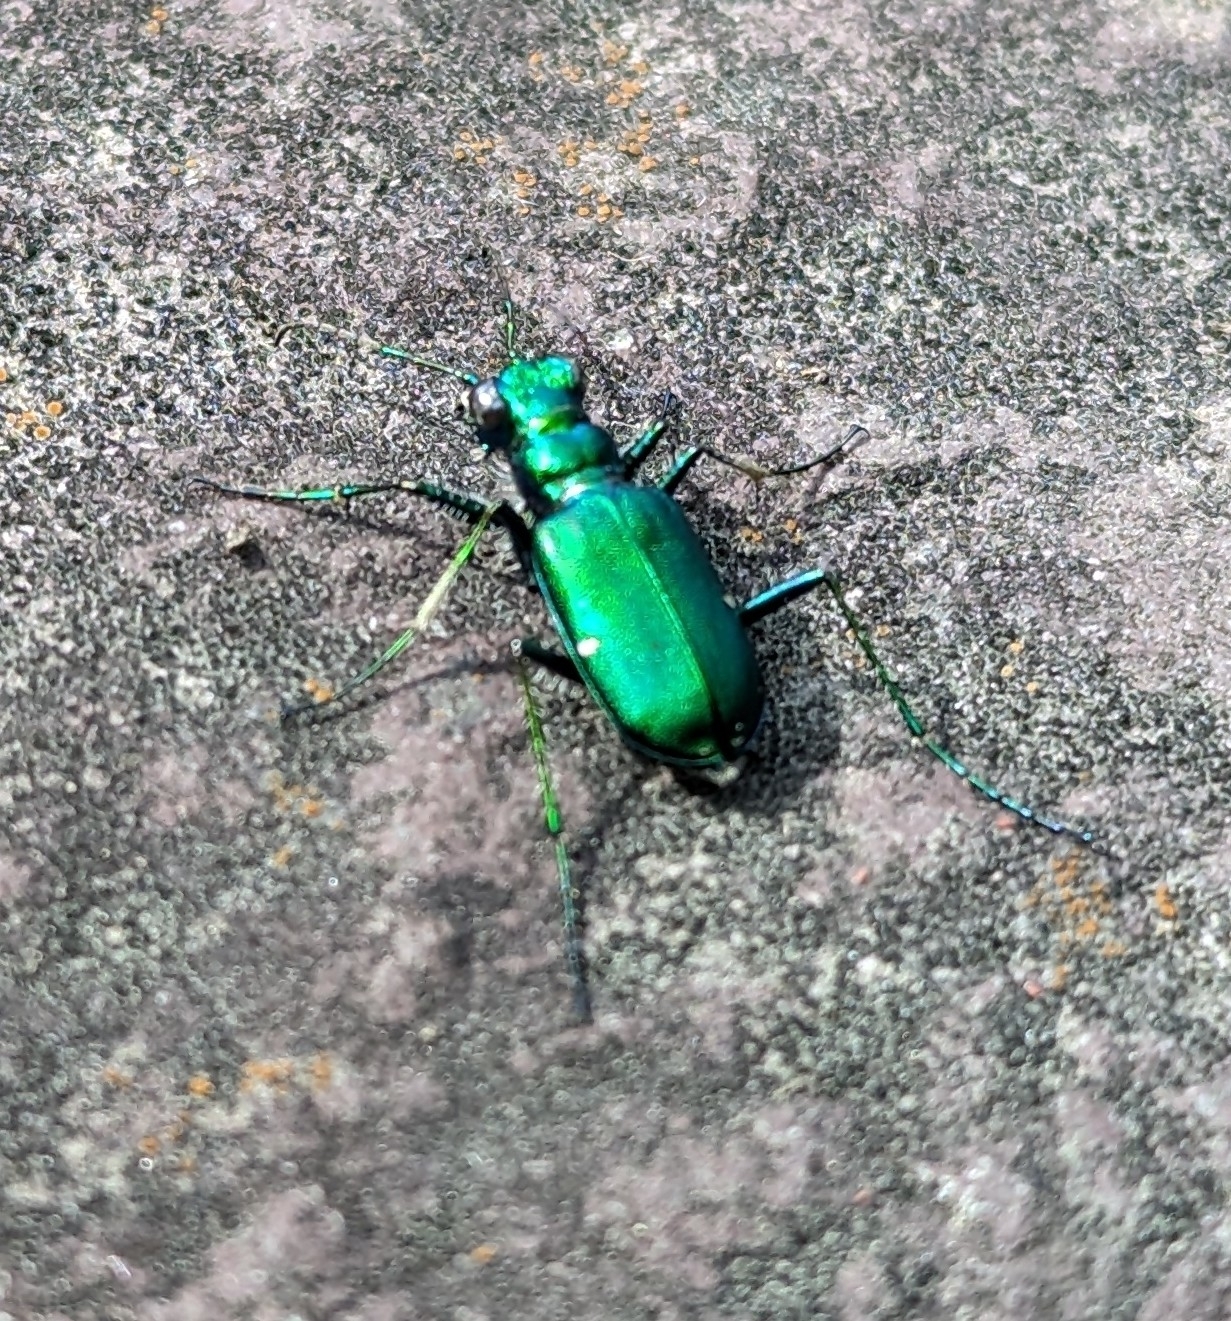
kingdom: Animalia
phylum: Arthropoda
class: Insecta
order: Coleoptera
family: Carabidae
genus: Cicindela
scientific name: Cicindela sexguttata
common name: Six-spotted tiger beetle
